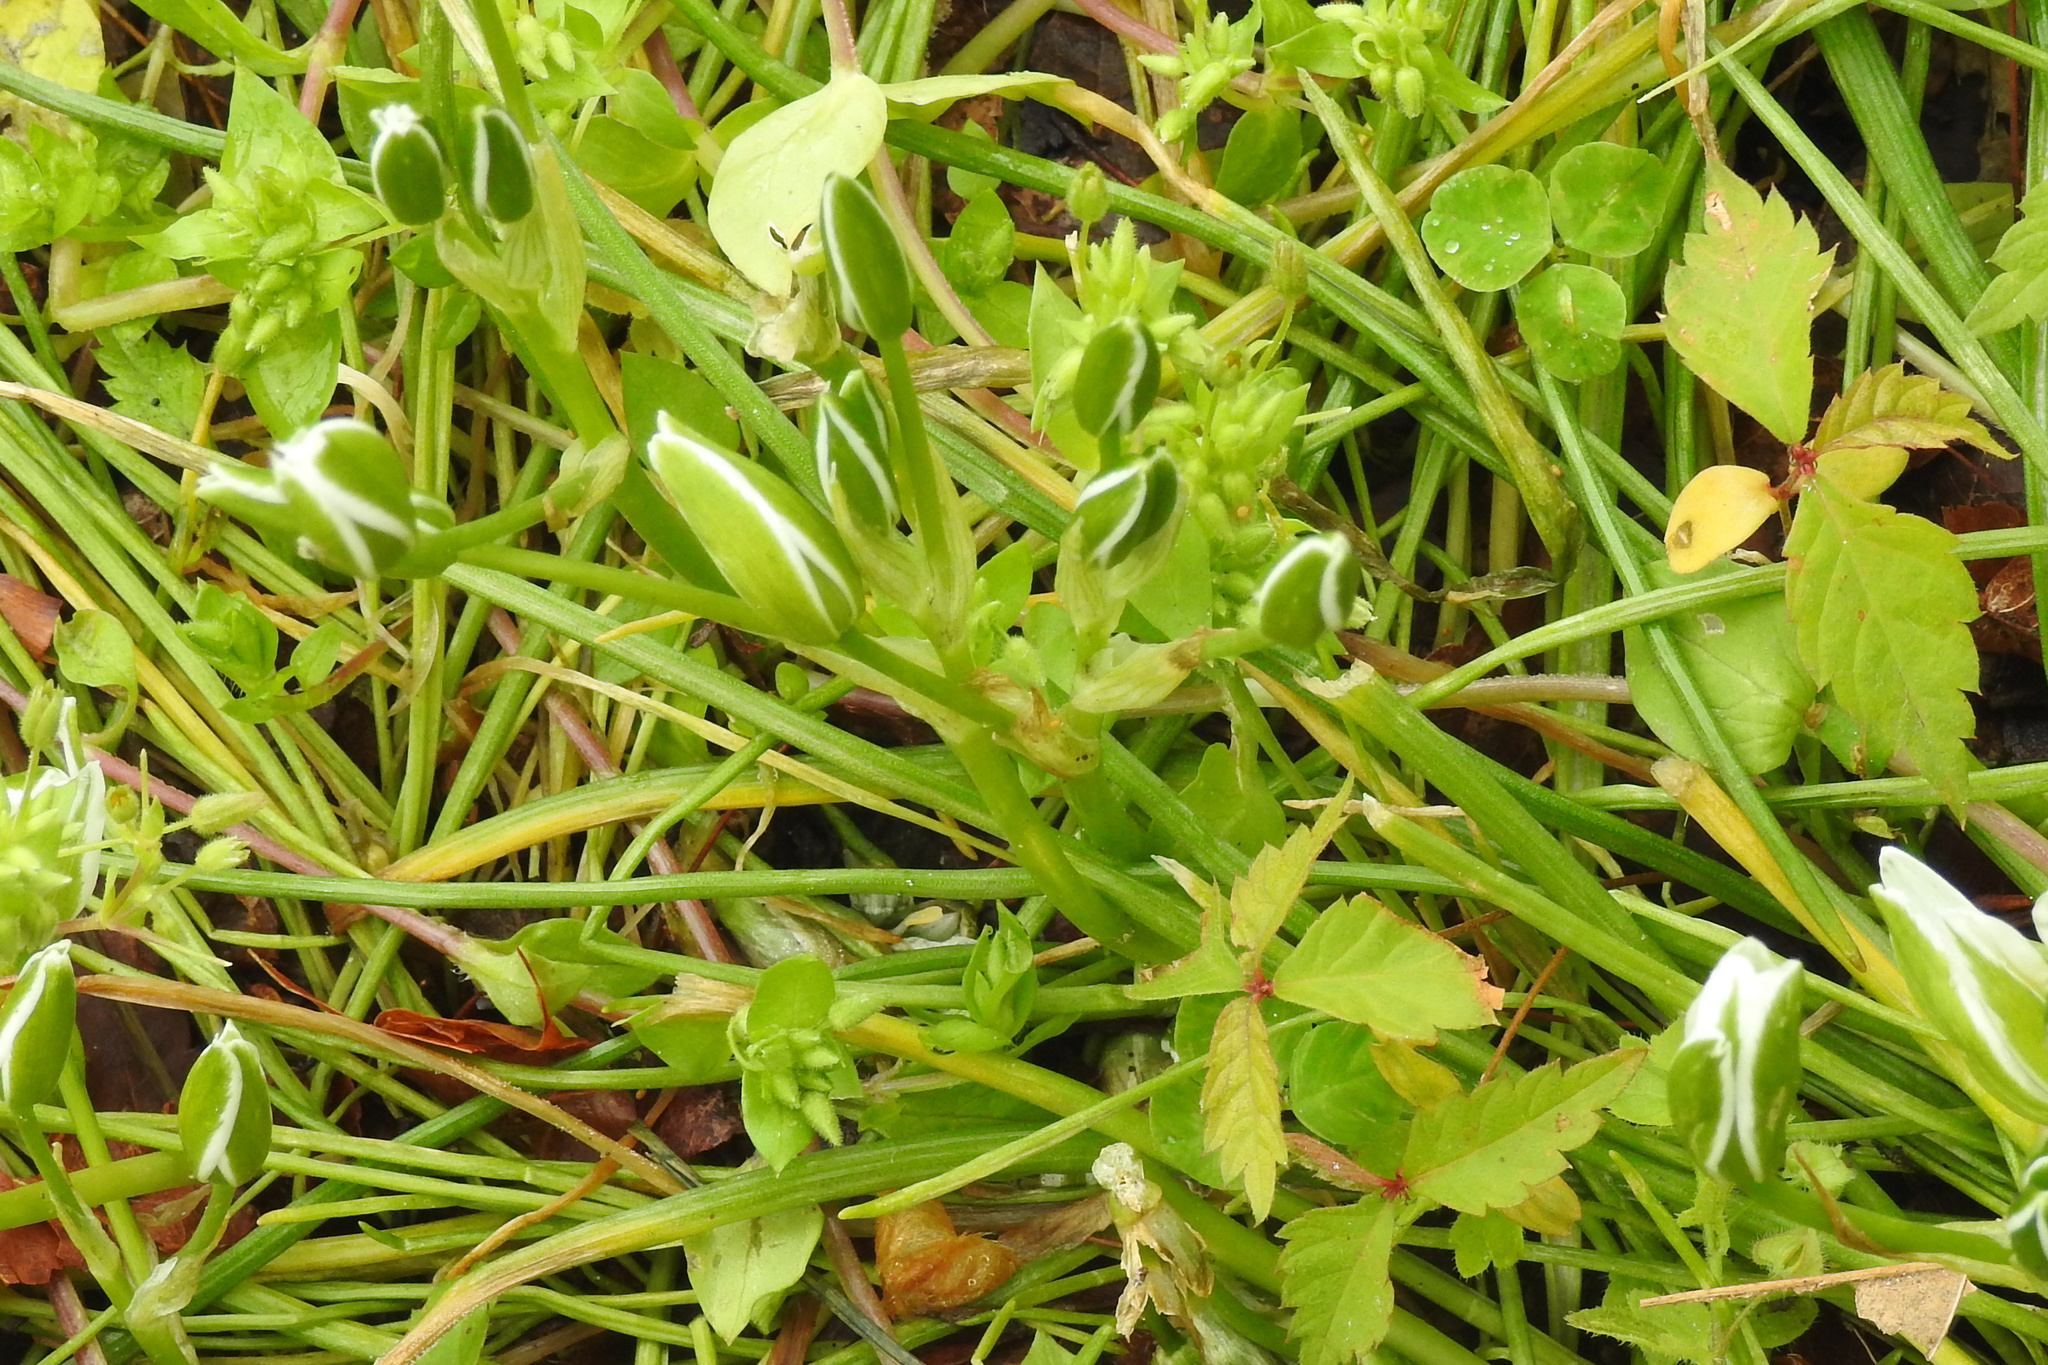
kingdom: Plantae
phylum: Tracheophyta
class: Liliopsida
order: Asparagales
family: Asparagaceae
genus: Ornithogalum
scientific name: Ornithogalum umbellatum
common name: Garden star-of-bethlehem
